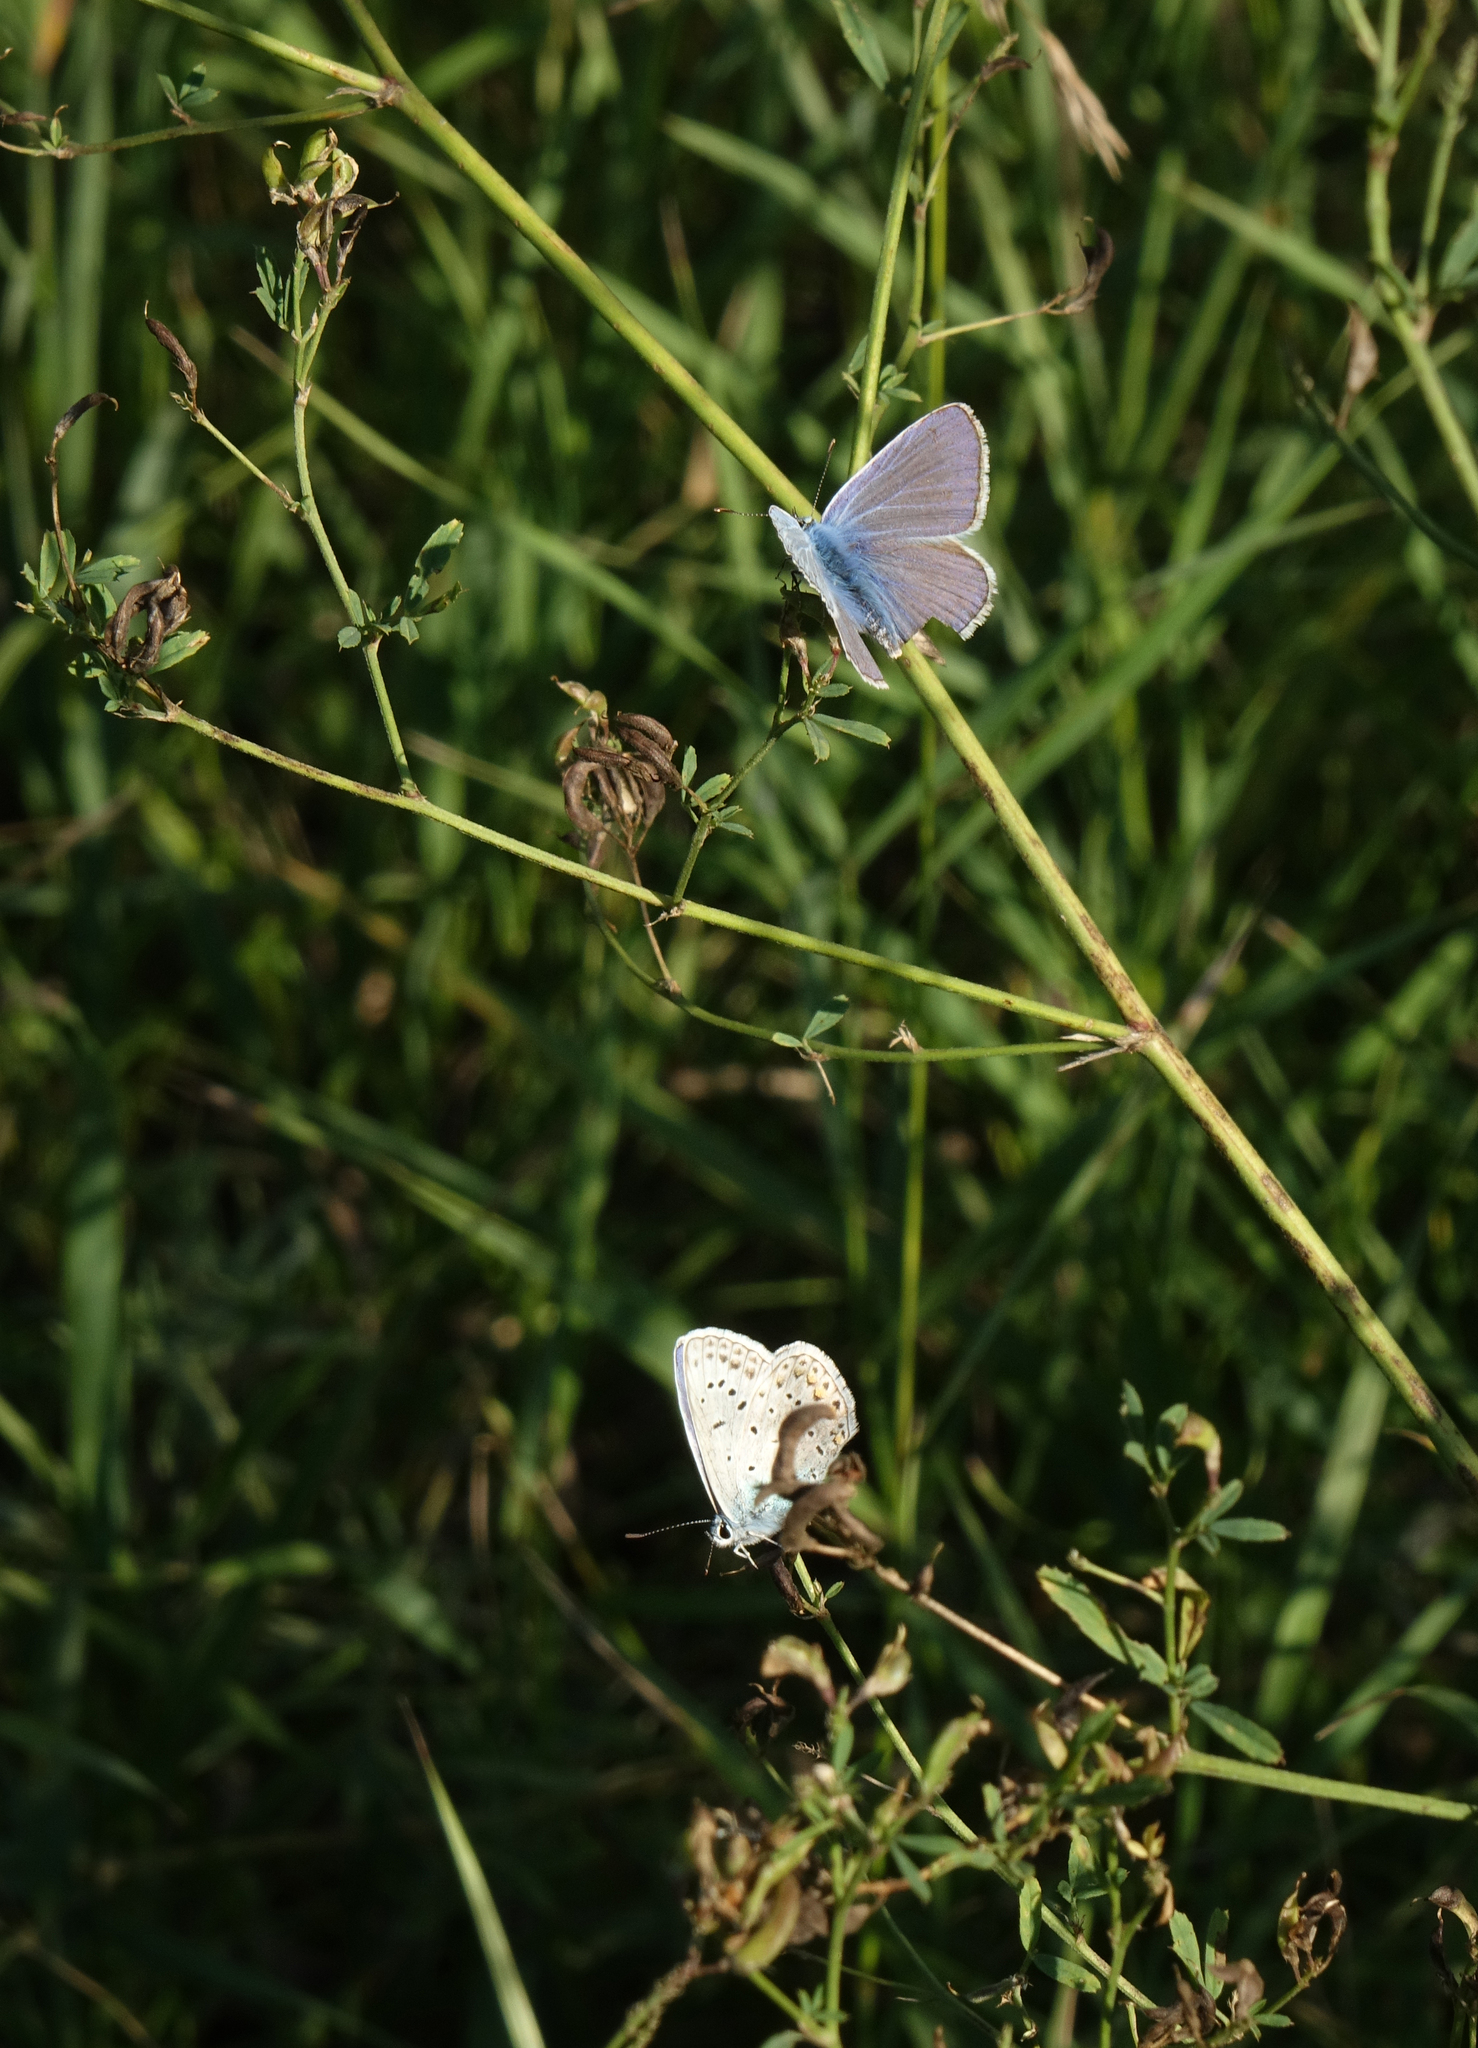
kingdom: Animalia
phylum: Arthropoda
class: Insecta
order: Lepidoptera
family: Lycaenidae
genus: Polyommatus
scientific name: Polyommatus icarus
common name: Common blue
